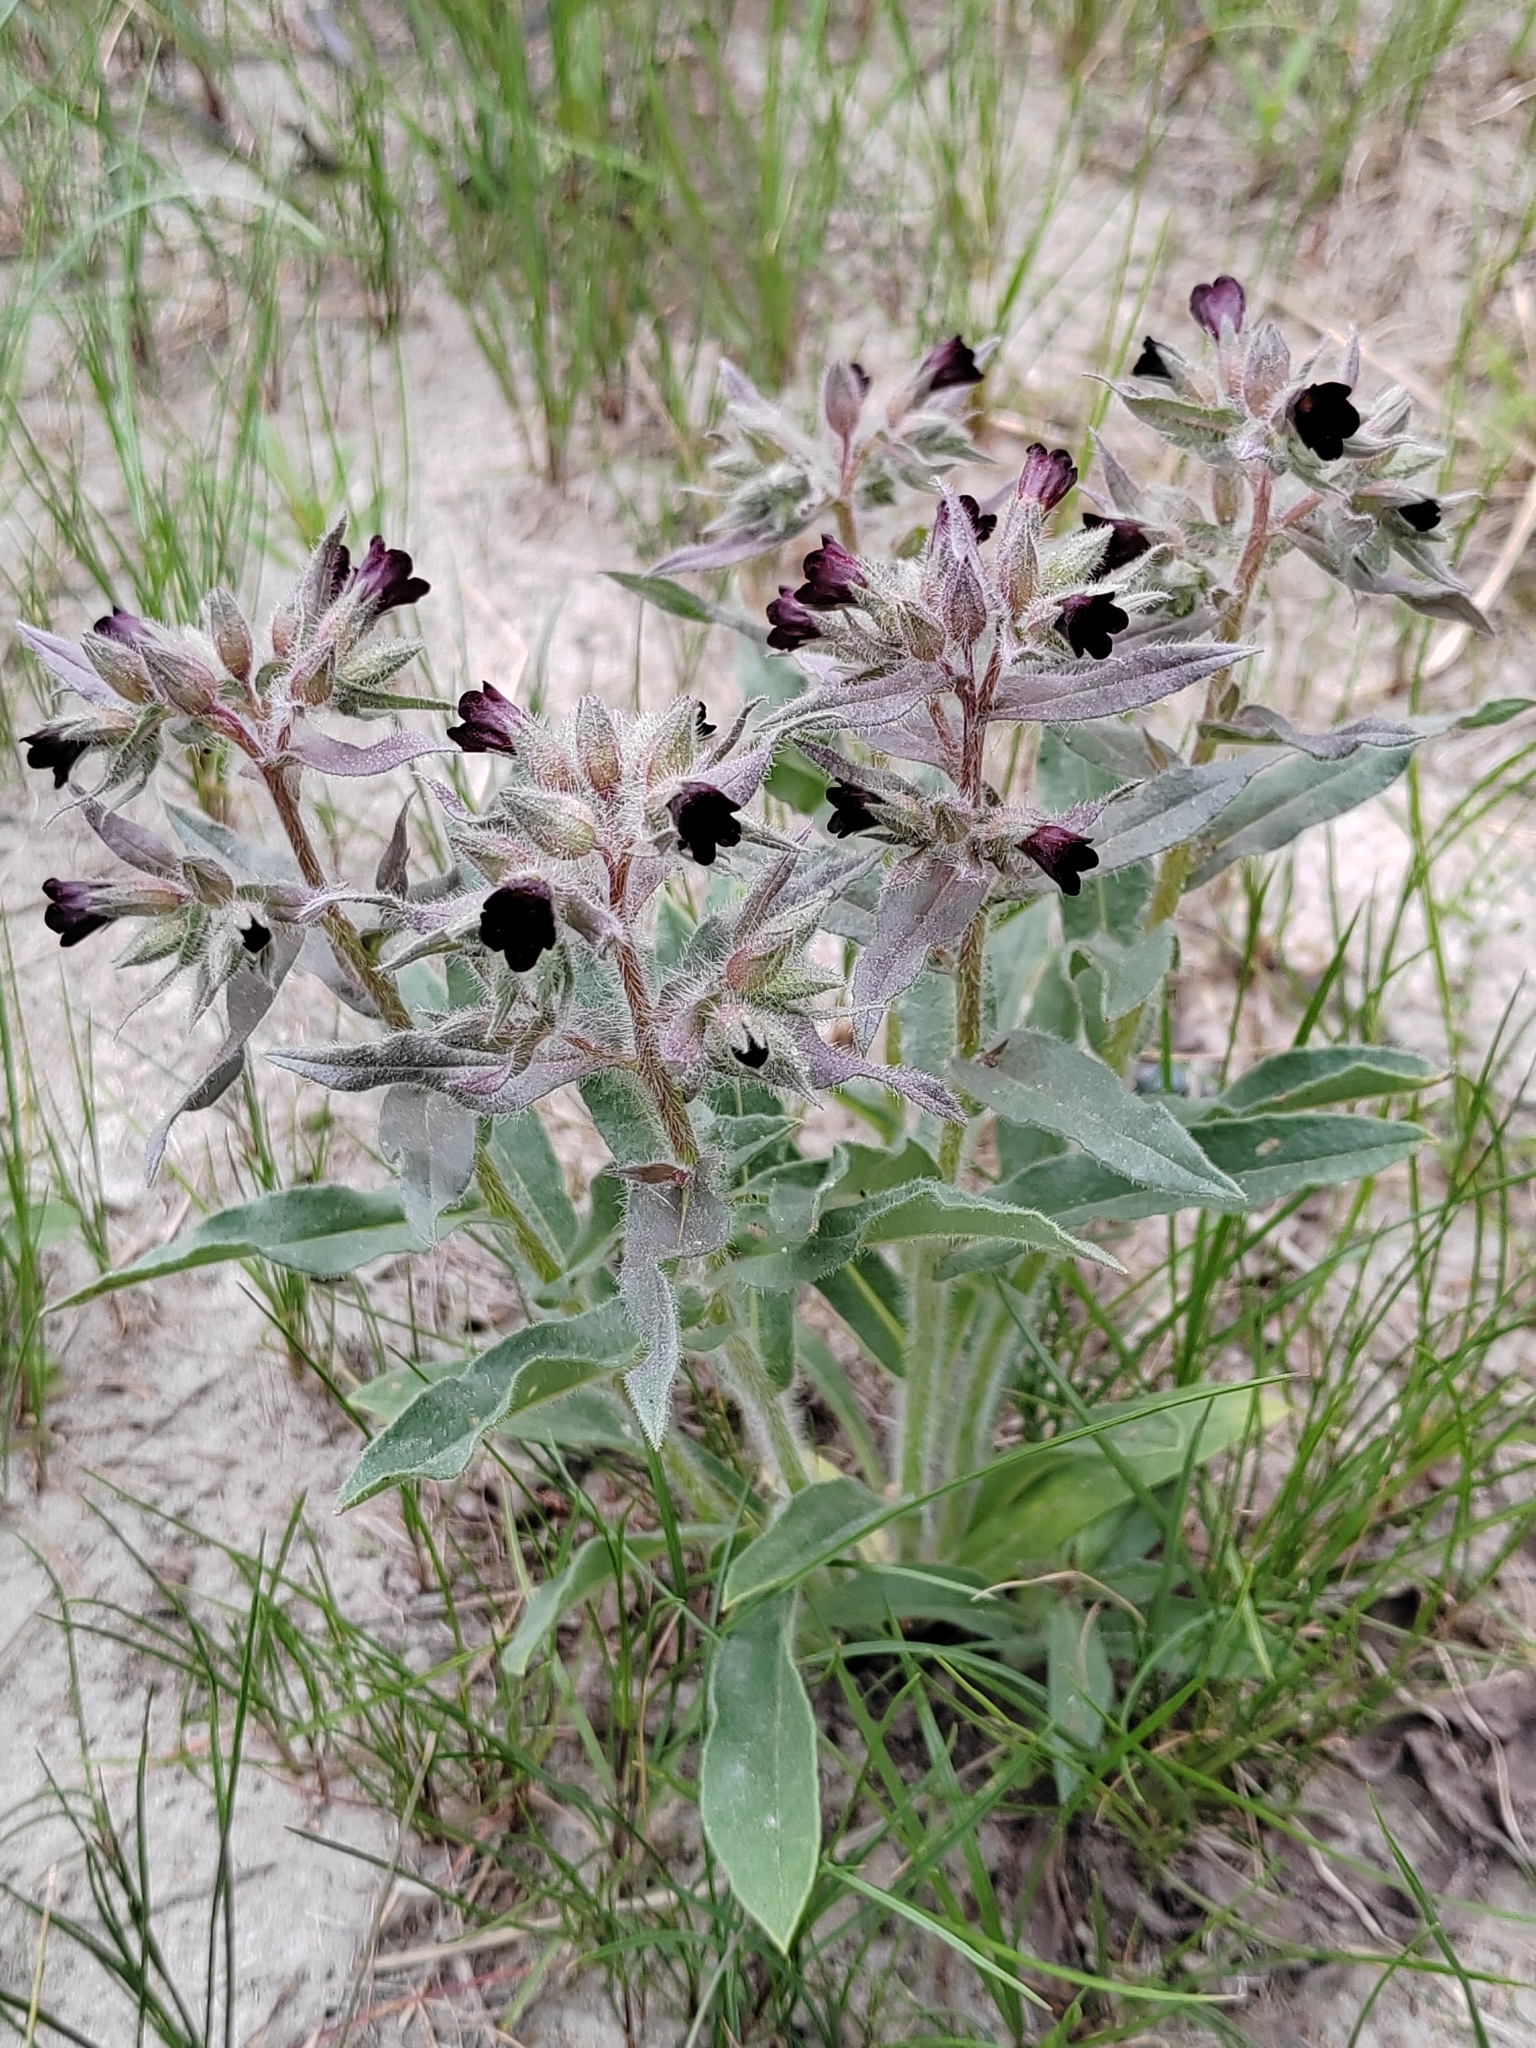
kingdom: Plantae
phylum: Tracheophyta
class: Magnoliopsida
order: Boraginales
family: Boraginaceae
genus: Nonea
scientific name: Nonea pulla
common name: Brown nonea
